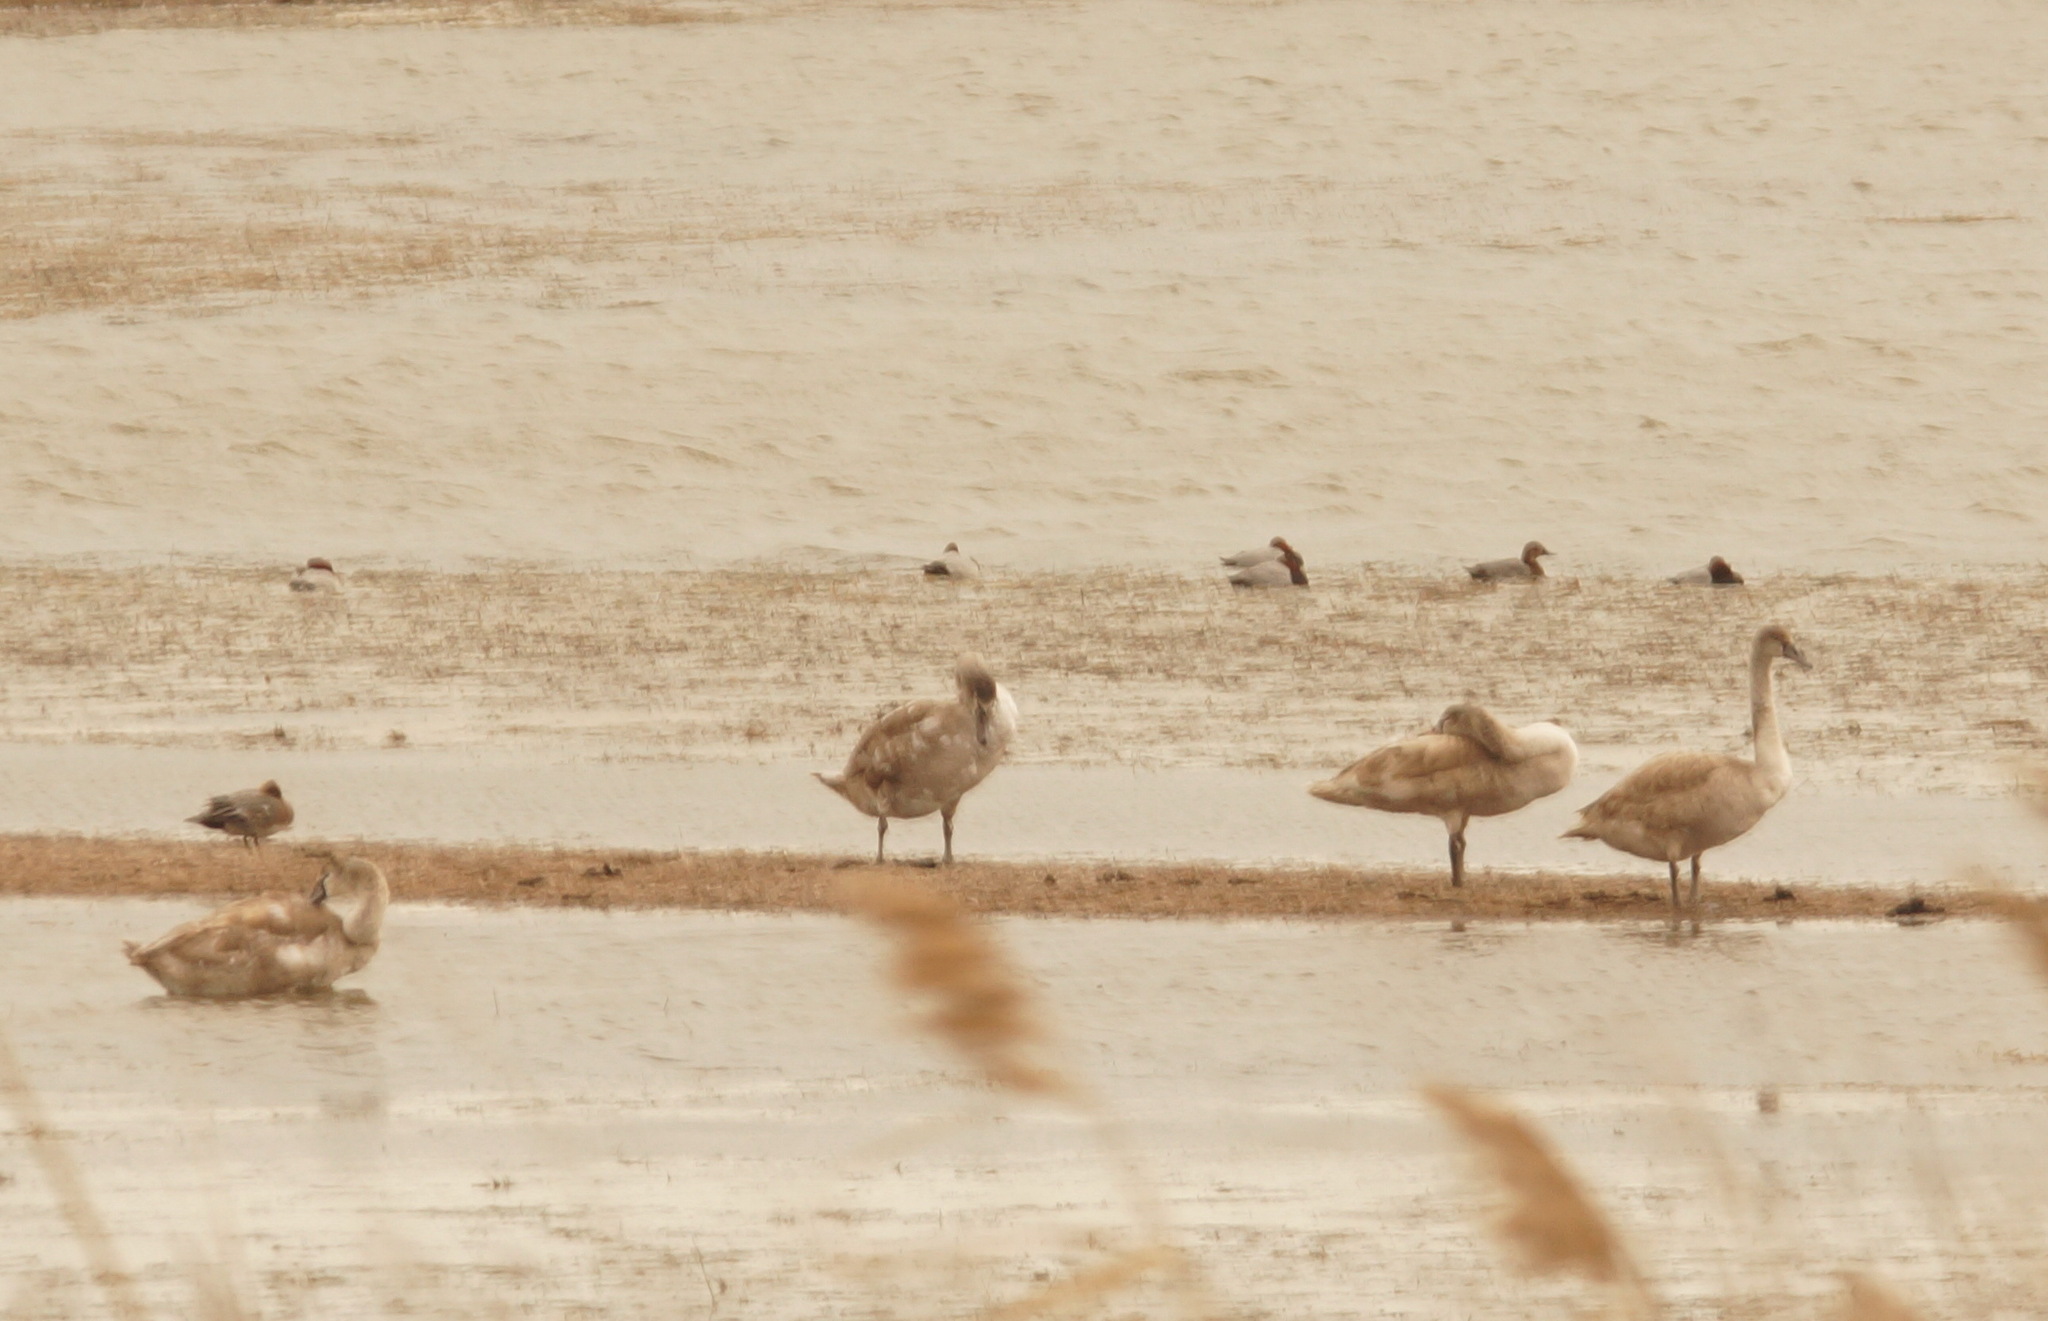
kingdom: Animalia
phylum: Chordata
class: Aves
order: Anseriformes
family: Anatidae
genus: Cygnus
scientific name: Cygnus olor
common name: Mute swan
